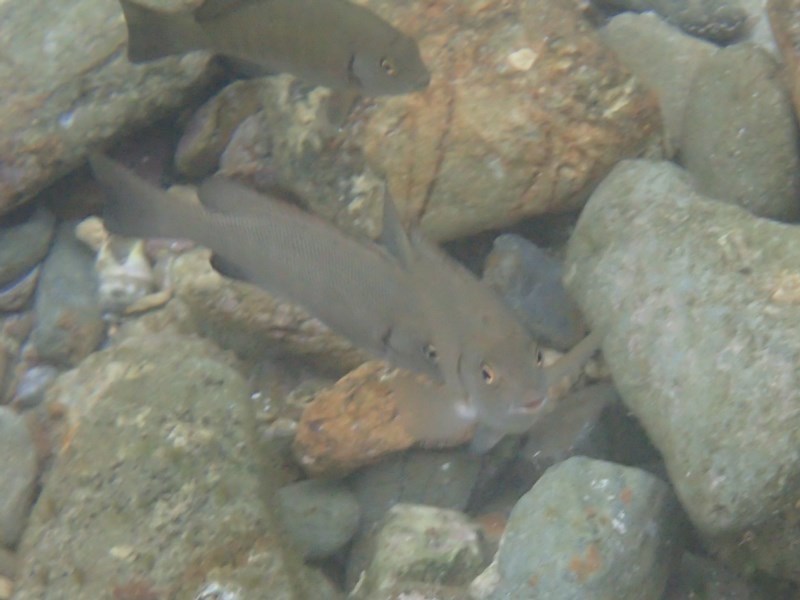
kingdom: Animalia
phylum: Chordata
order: Perciformes
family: Kyphosidae
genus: Girella
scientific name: Girella elevata
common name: Black bream
